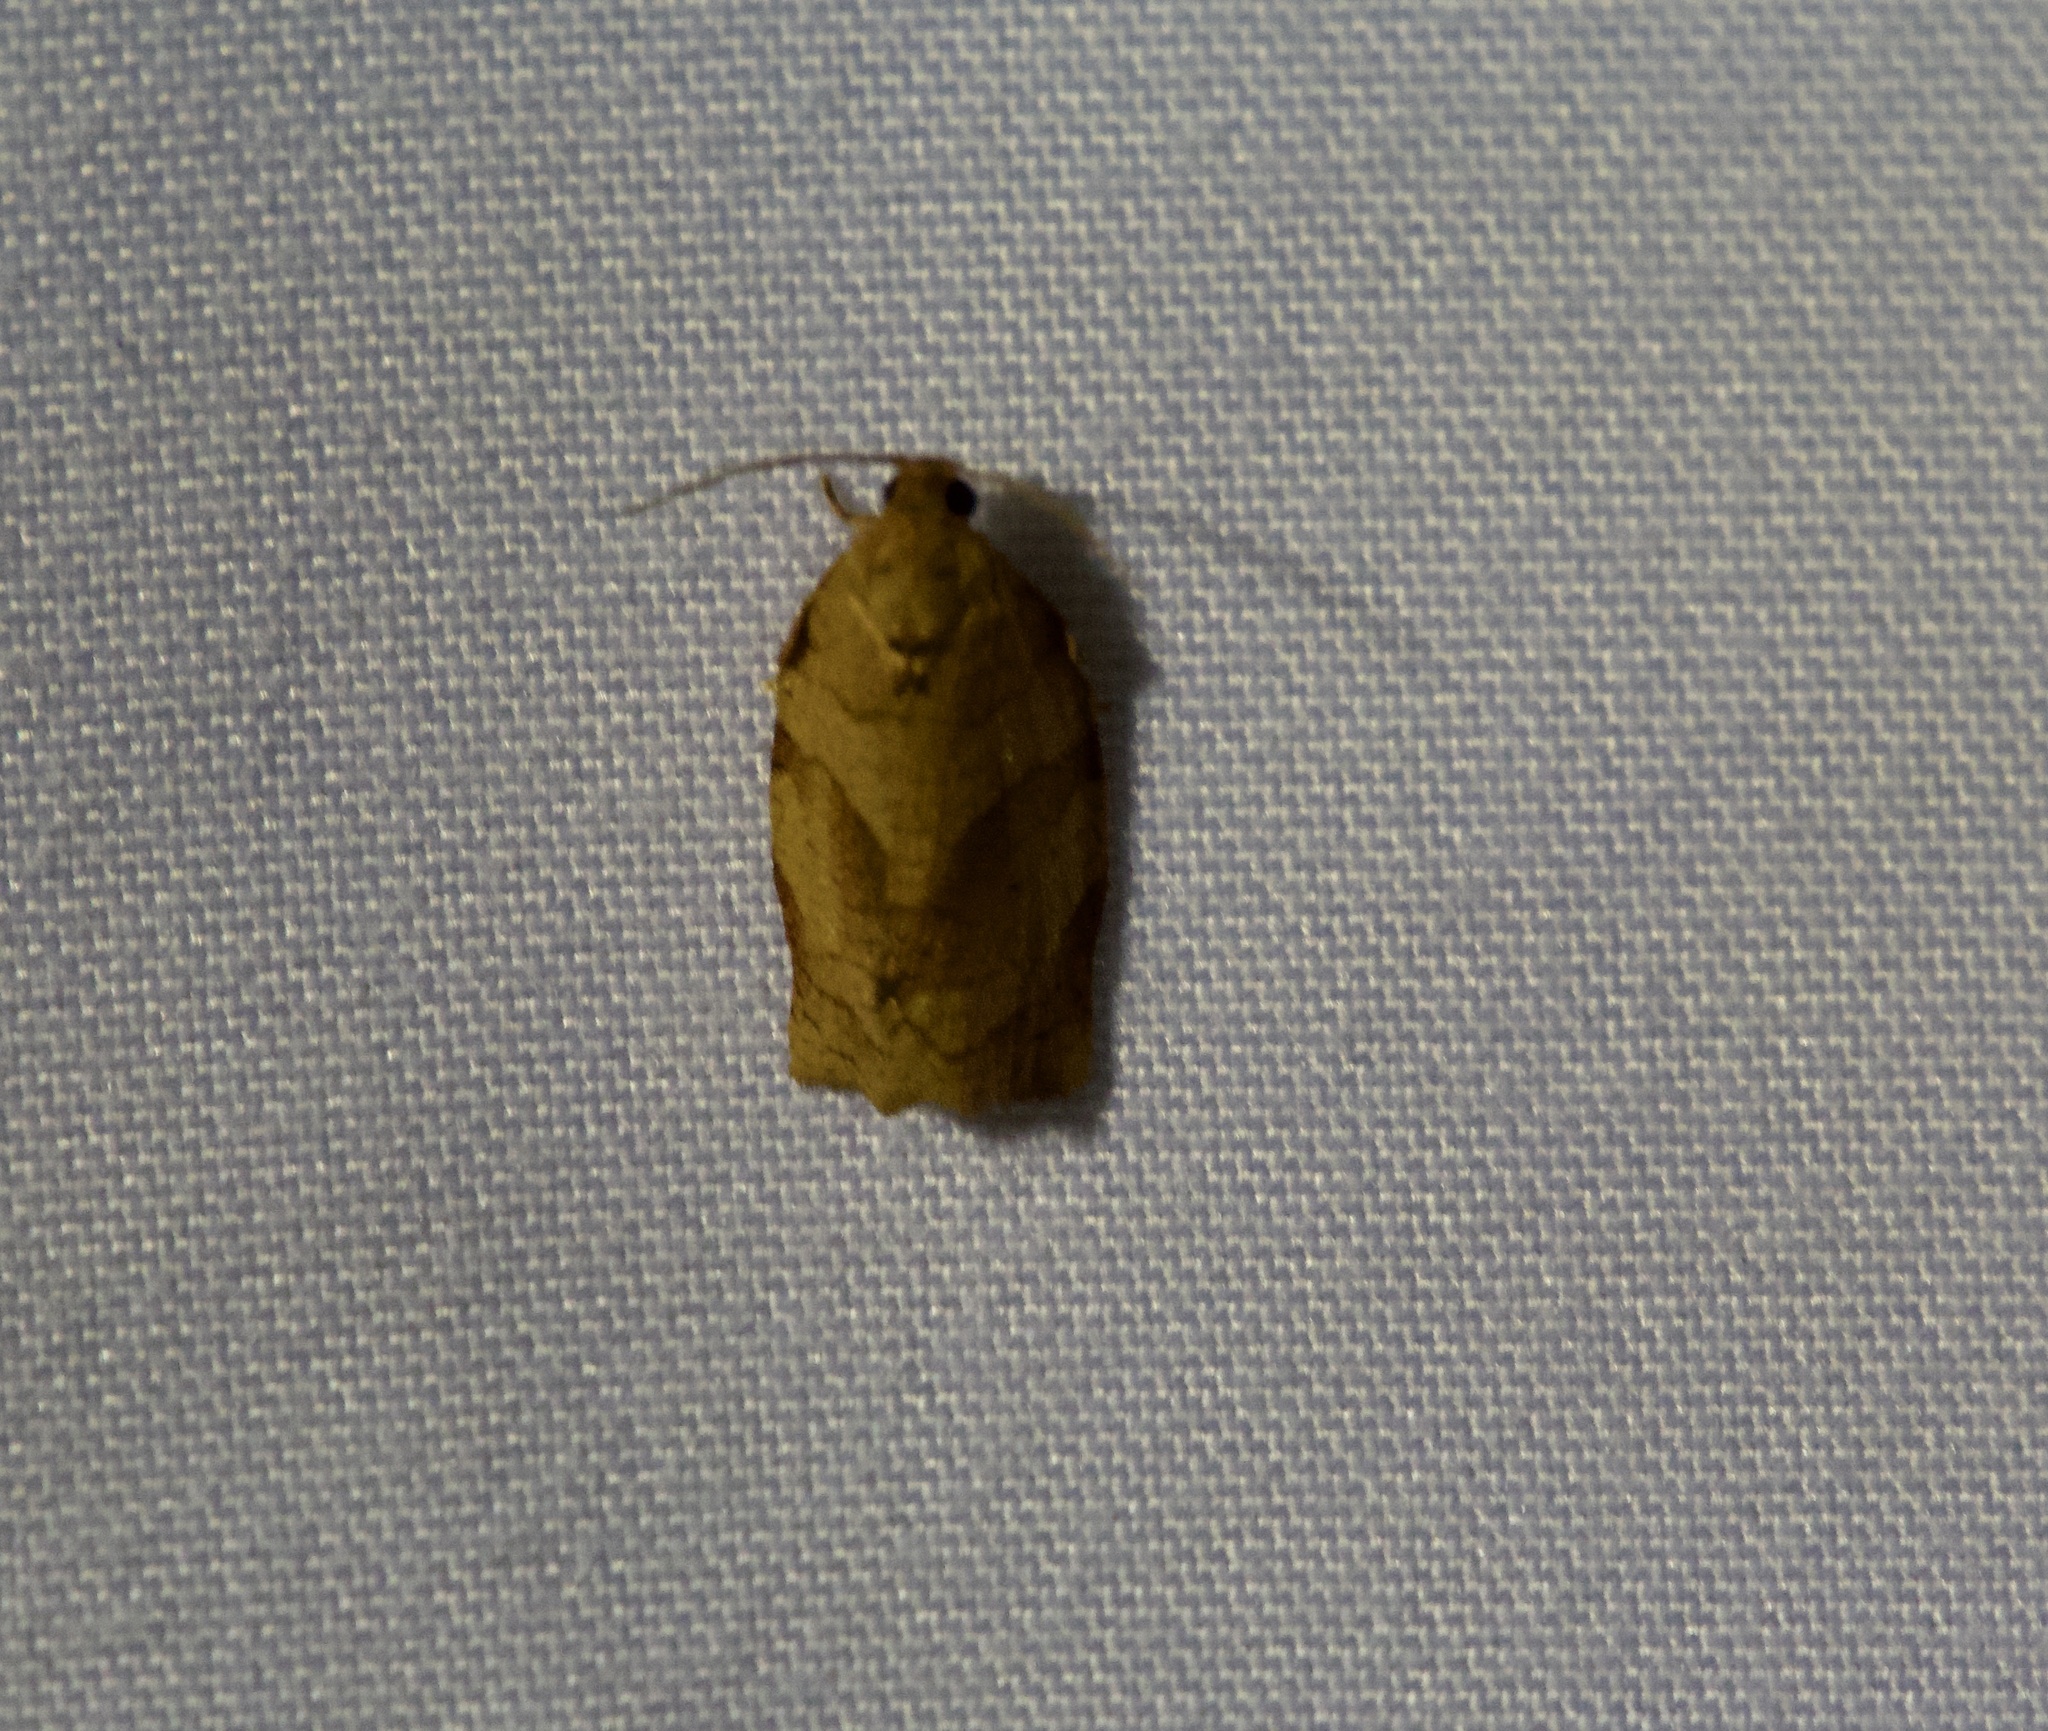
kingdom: Animalia
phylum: Arthropoda
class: Insecta
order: Lepidoptera
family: Tortricidae
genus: Choristoneura
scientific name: Choristoneura rosaceana
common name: Oblique-banded leafroller moth
